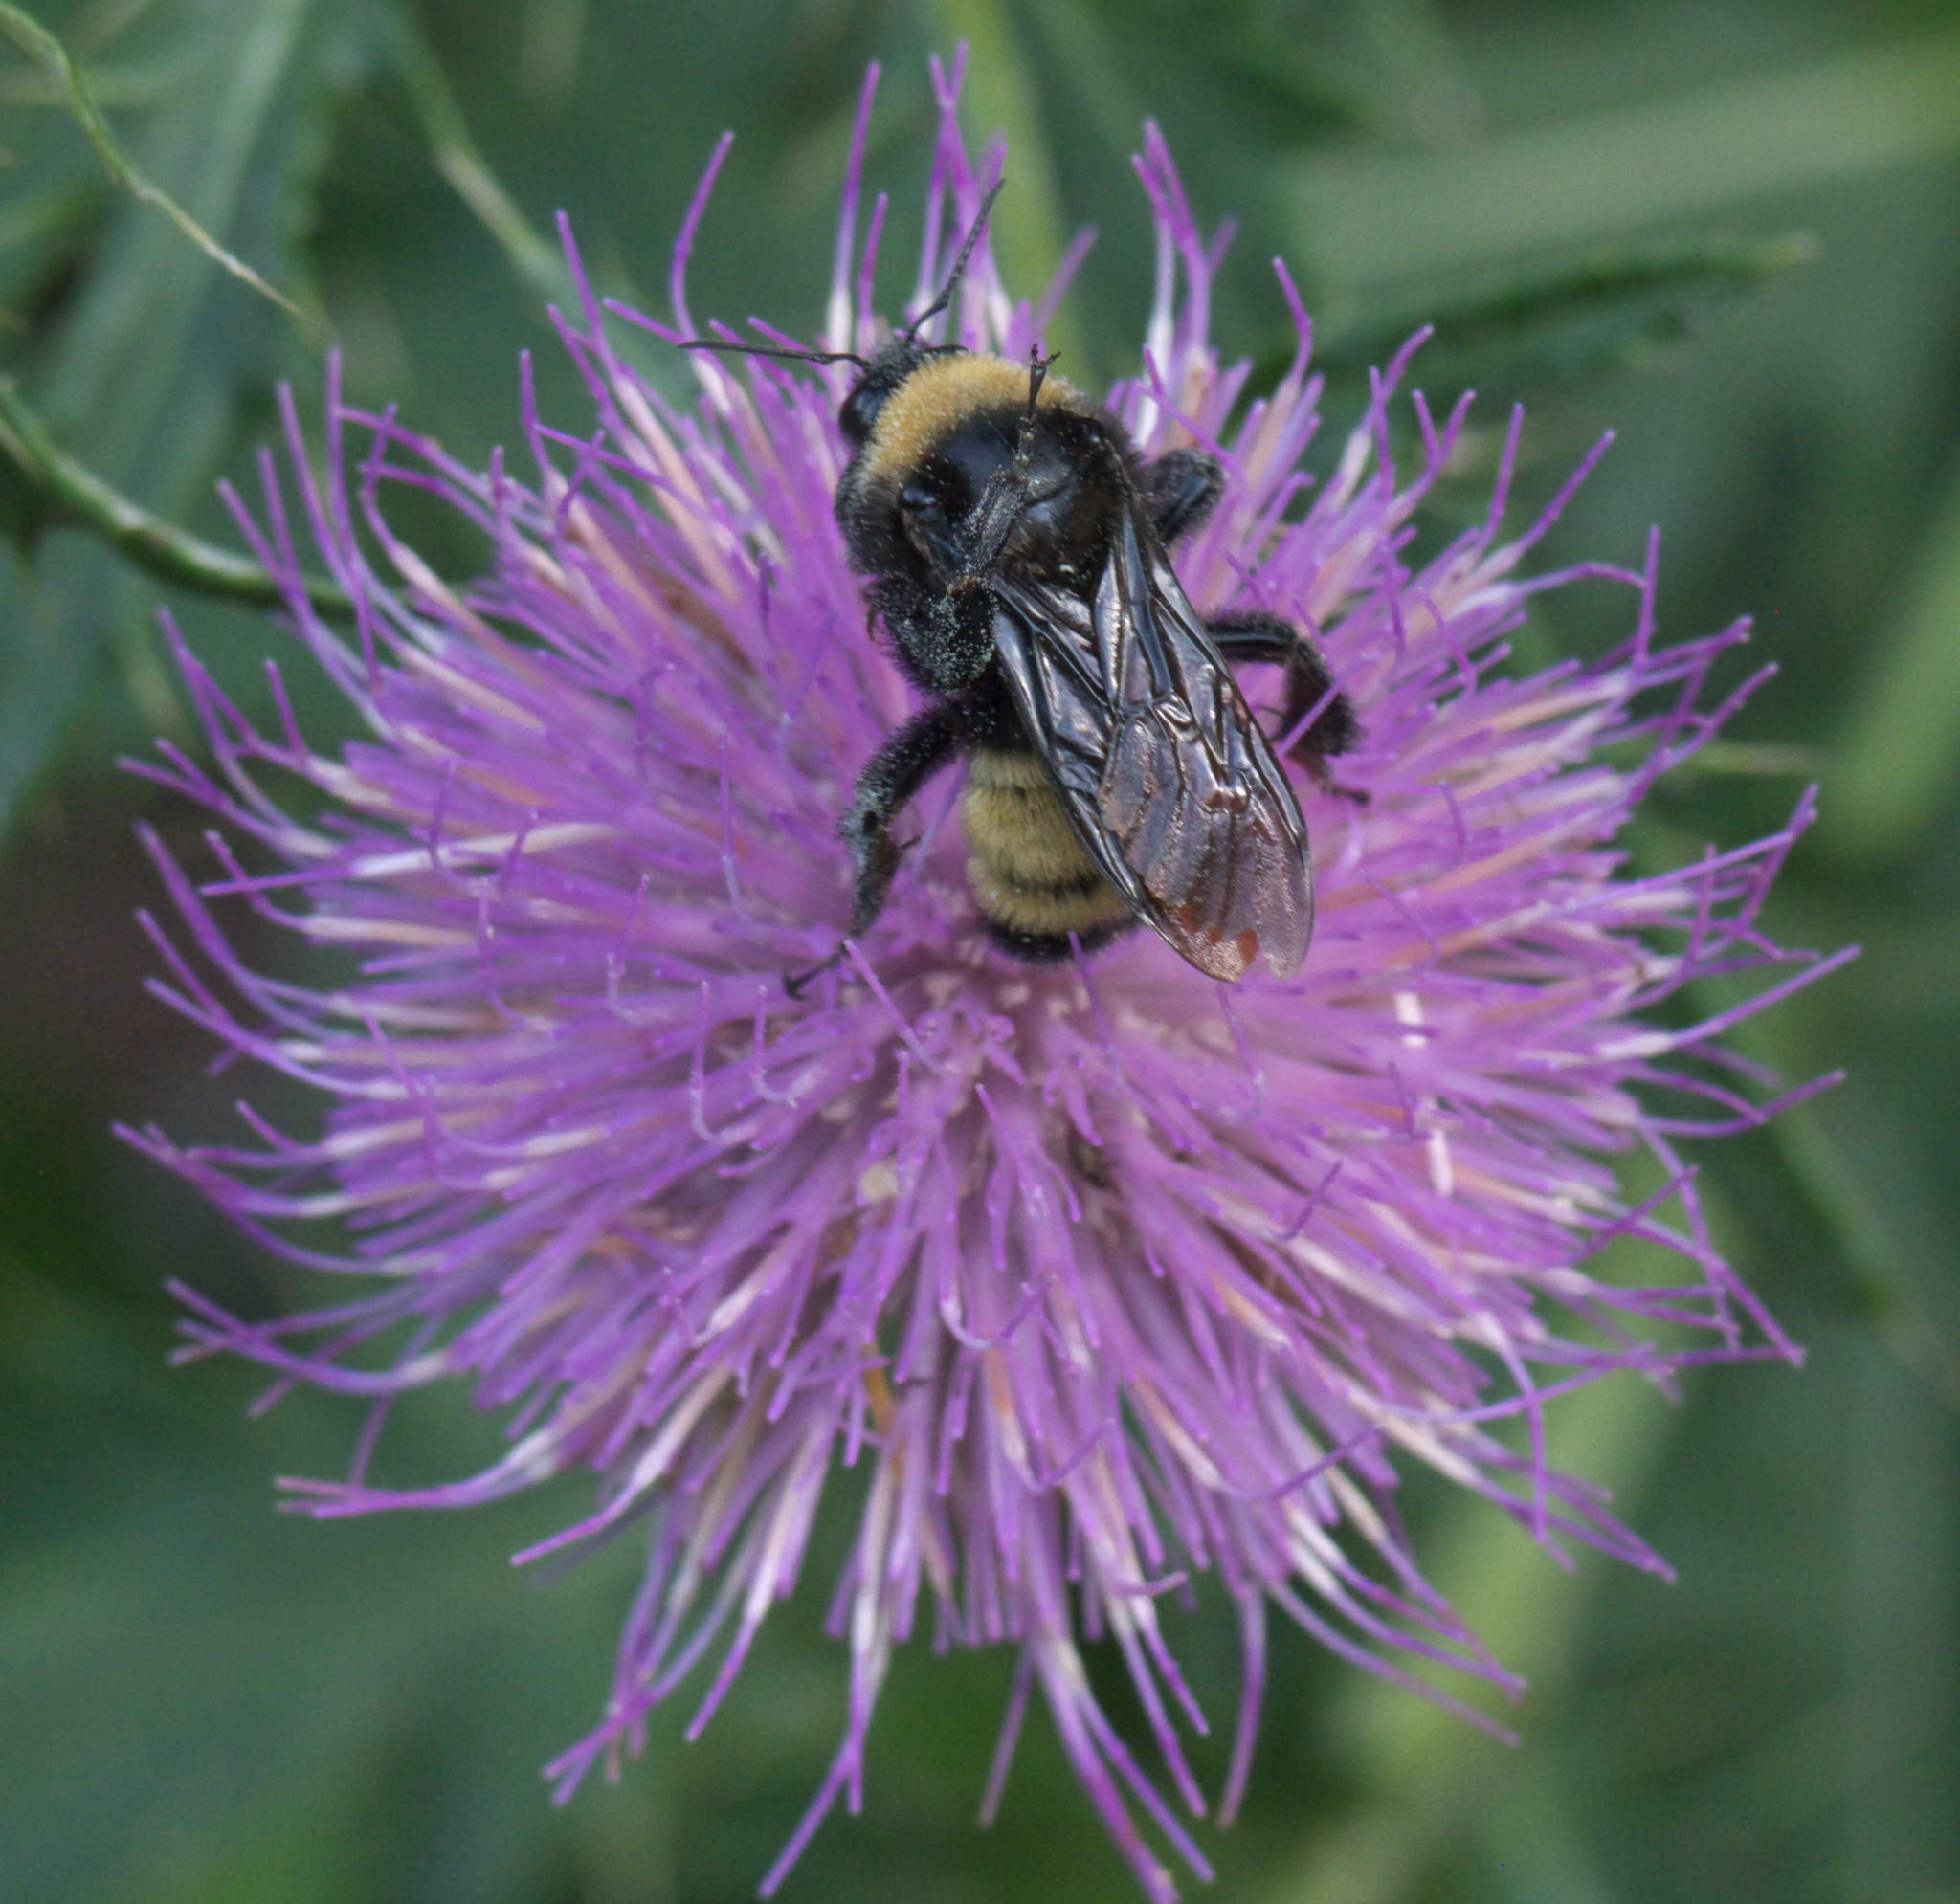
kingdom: Animalia
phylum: Arthropoda
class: Insecta
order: Hymenoptera
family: Apidae
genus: Bombus
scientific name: Bombus pensylvanicus
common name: Bumble bee
